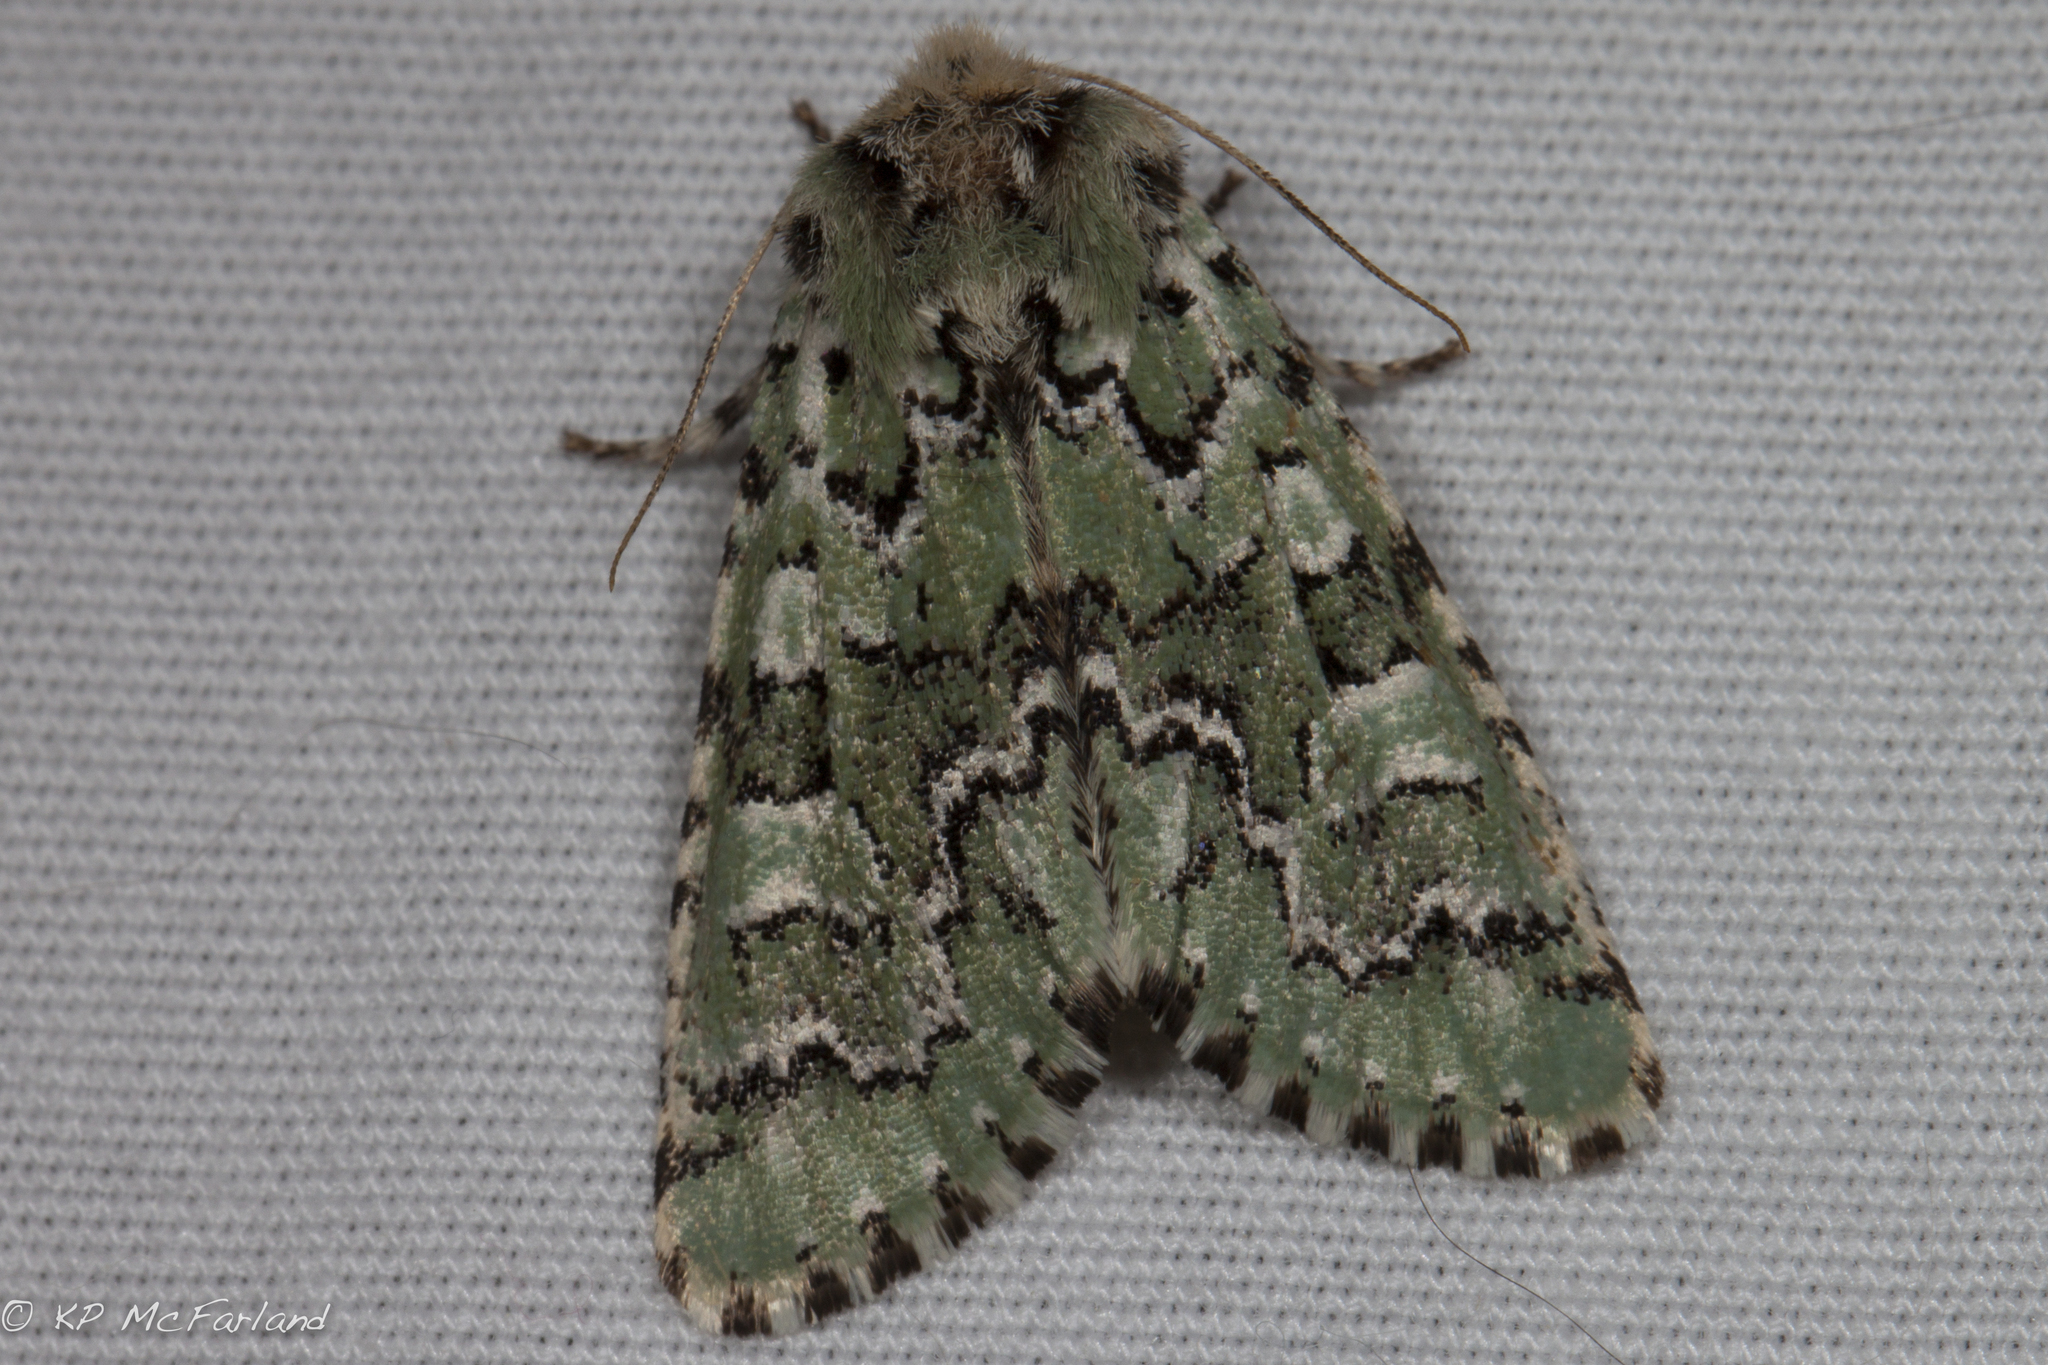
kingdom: Animalia
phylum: Arthropoda
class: Insecta
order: Lepidoptera
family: Noctuidae
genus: Feralia
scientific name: Feralia jocosa
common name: Joker
